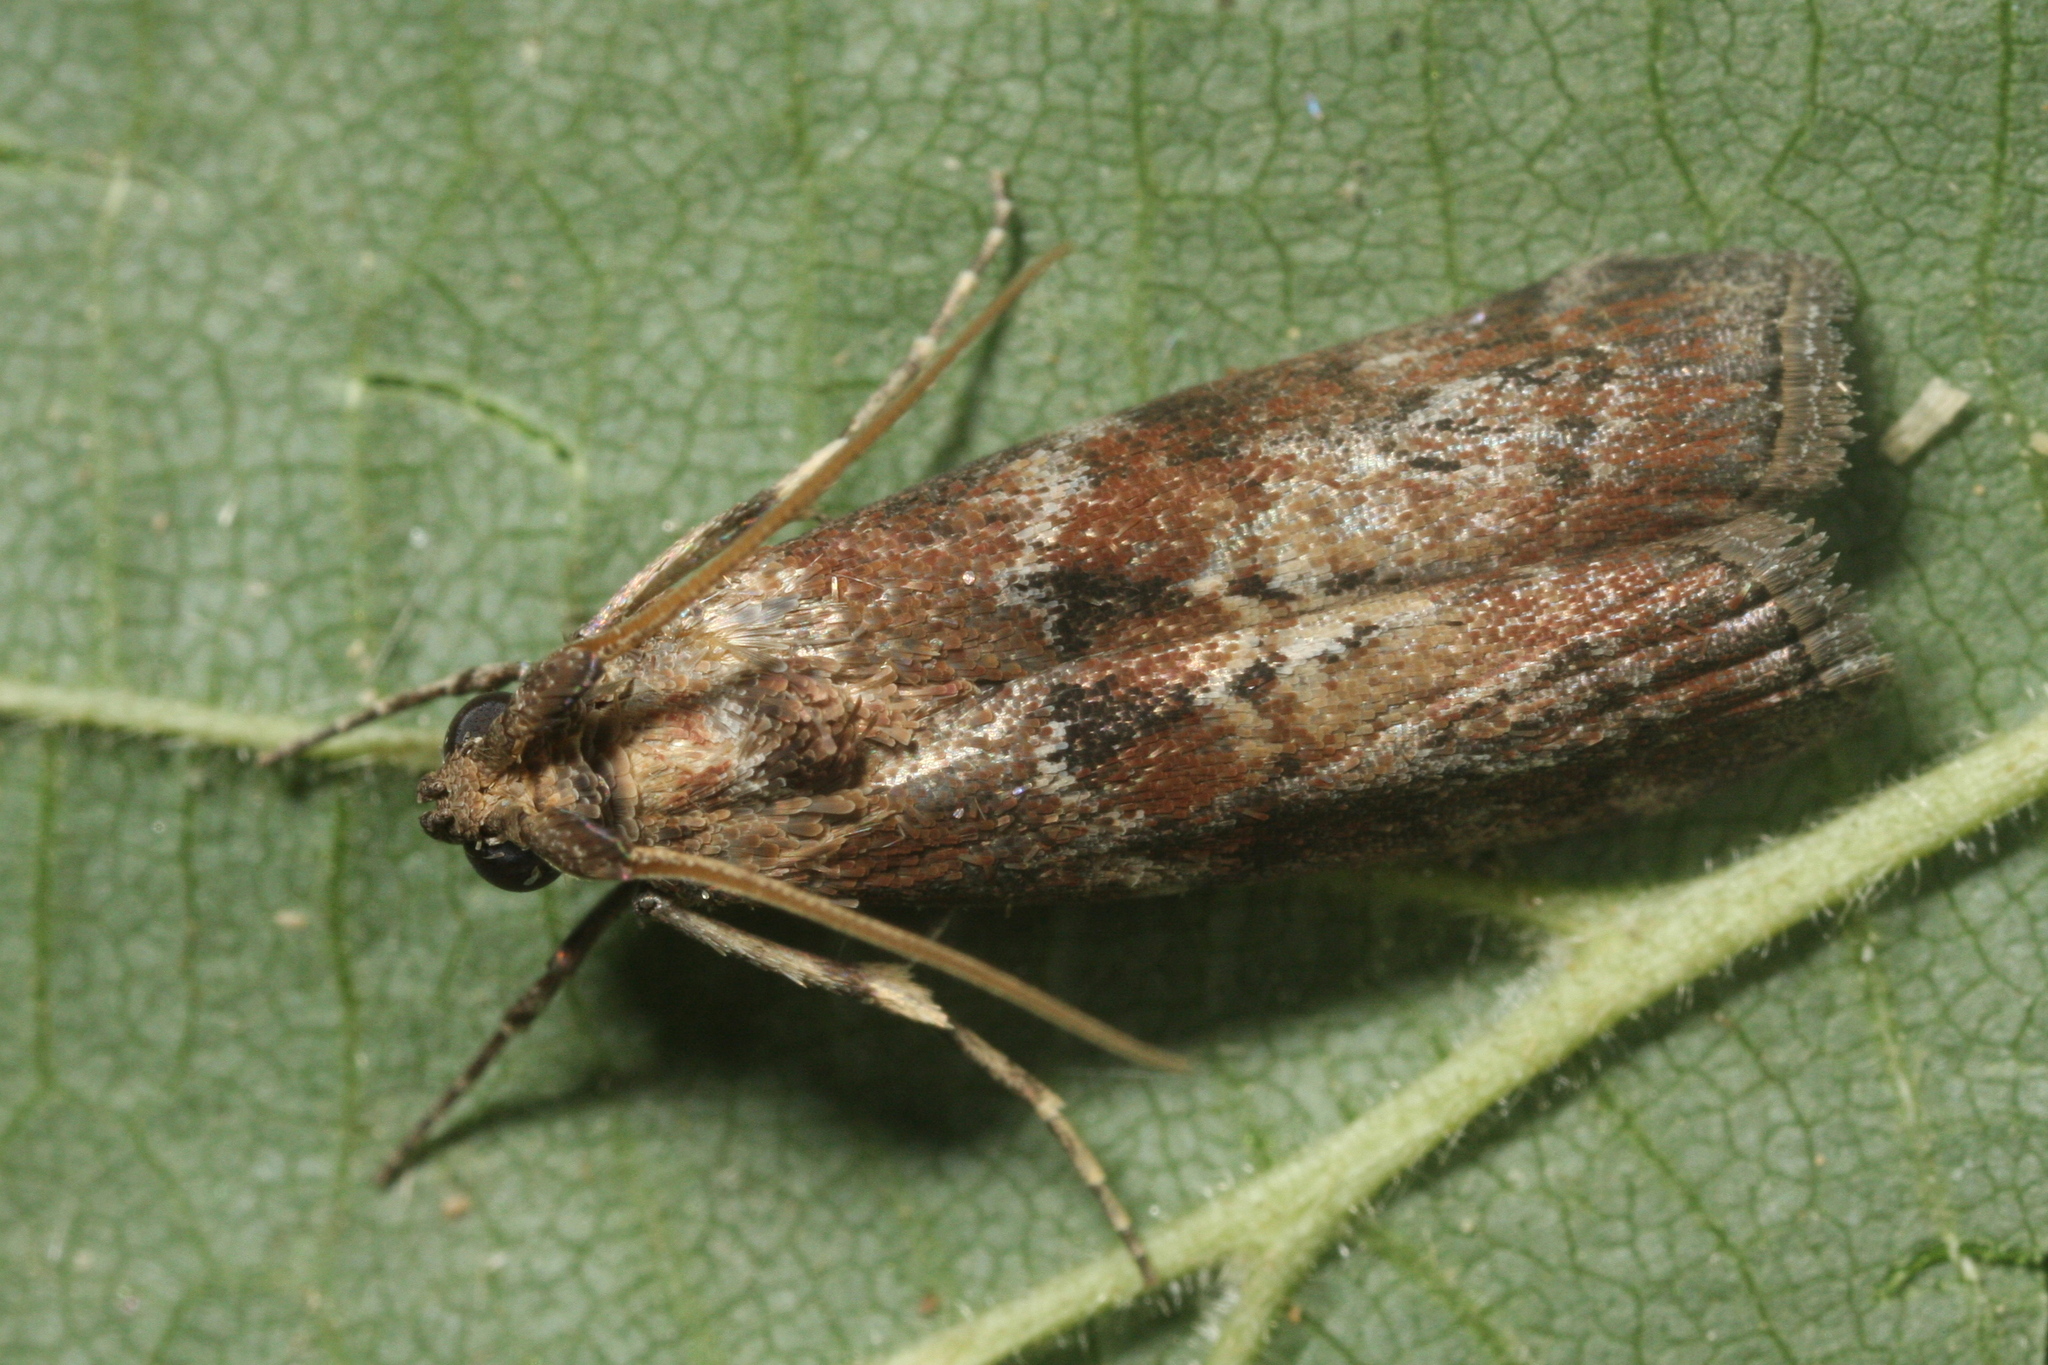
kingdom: Animalia
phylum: Arthropoda
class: Insecta
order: Lepidoptera
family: Pyralidae
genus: Phycita
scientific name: Phycita roborella
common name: Dotted oak knot-horn
